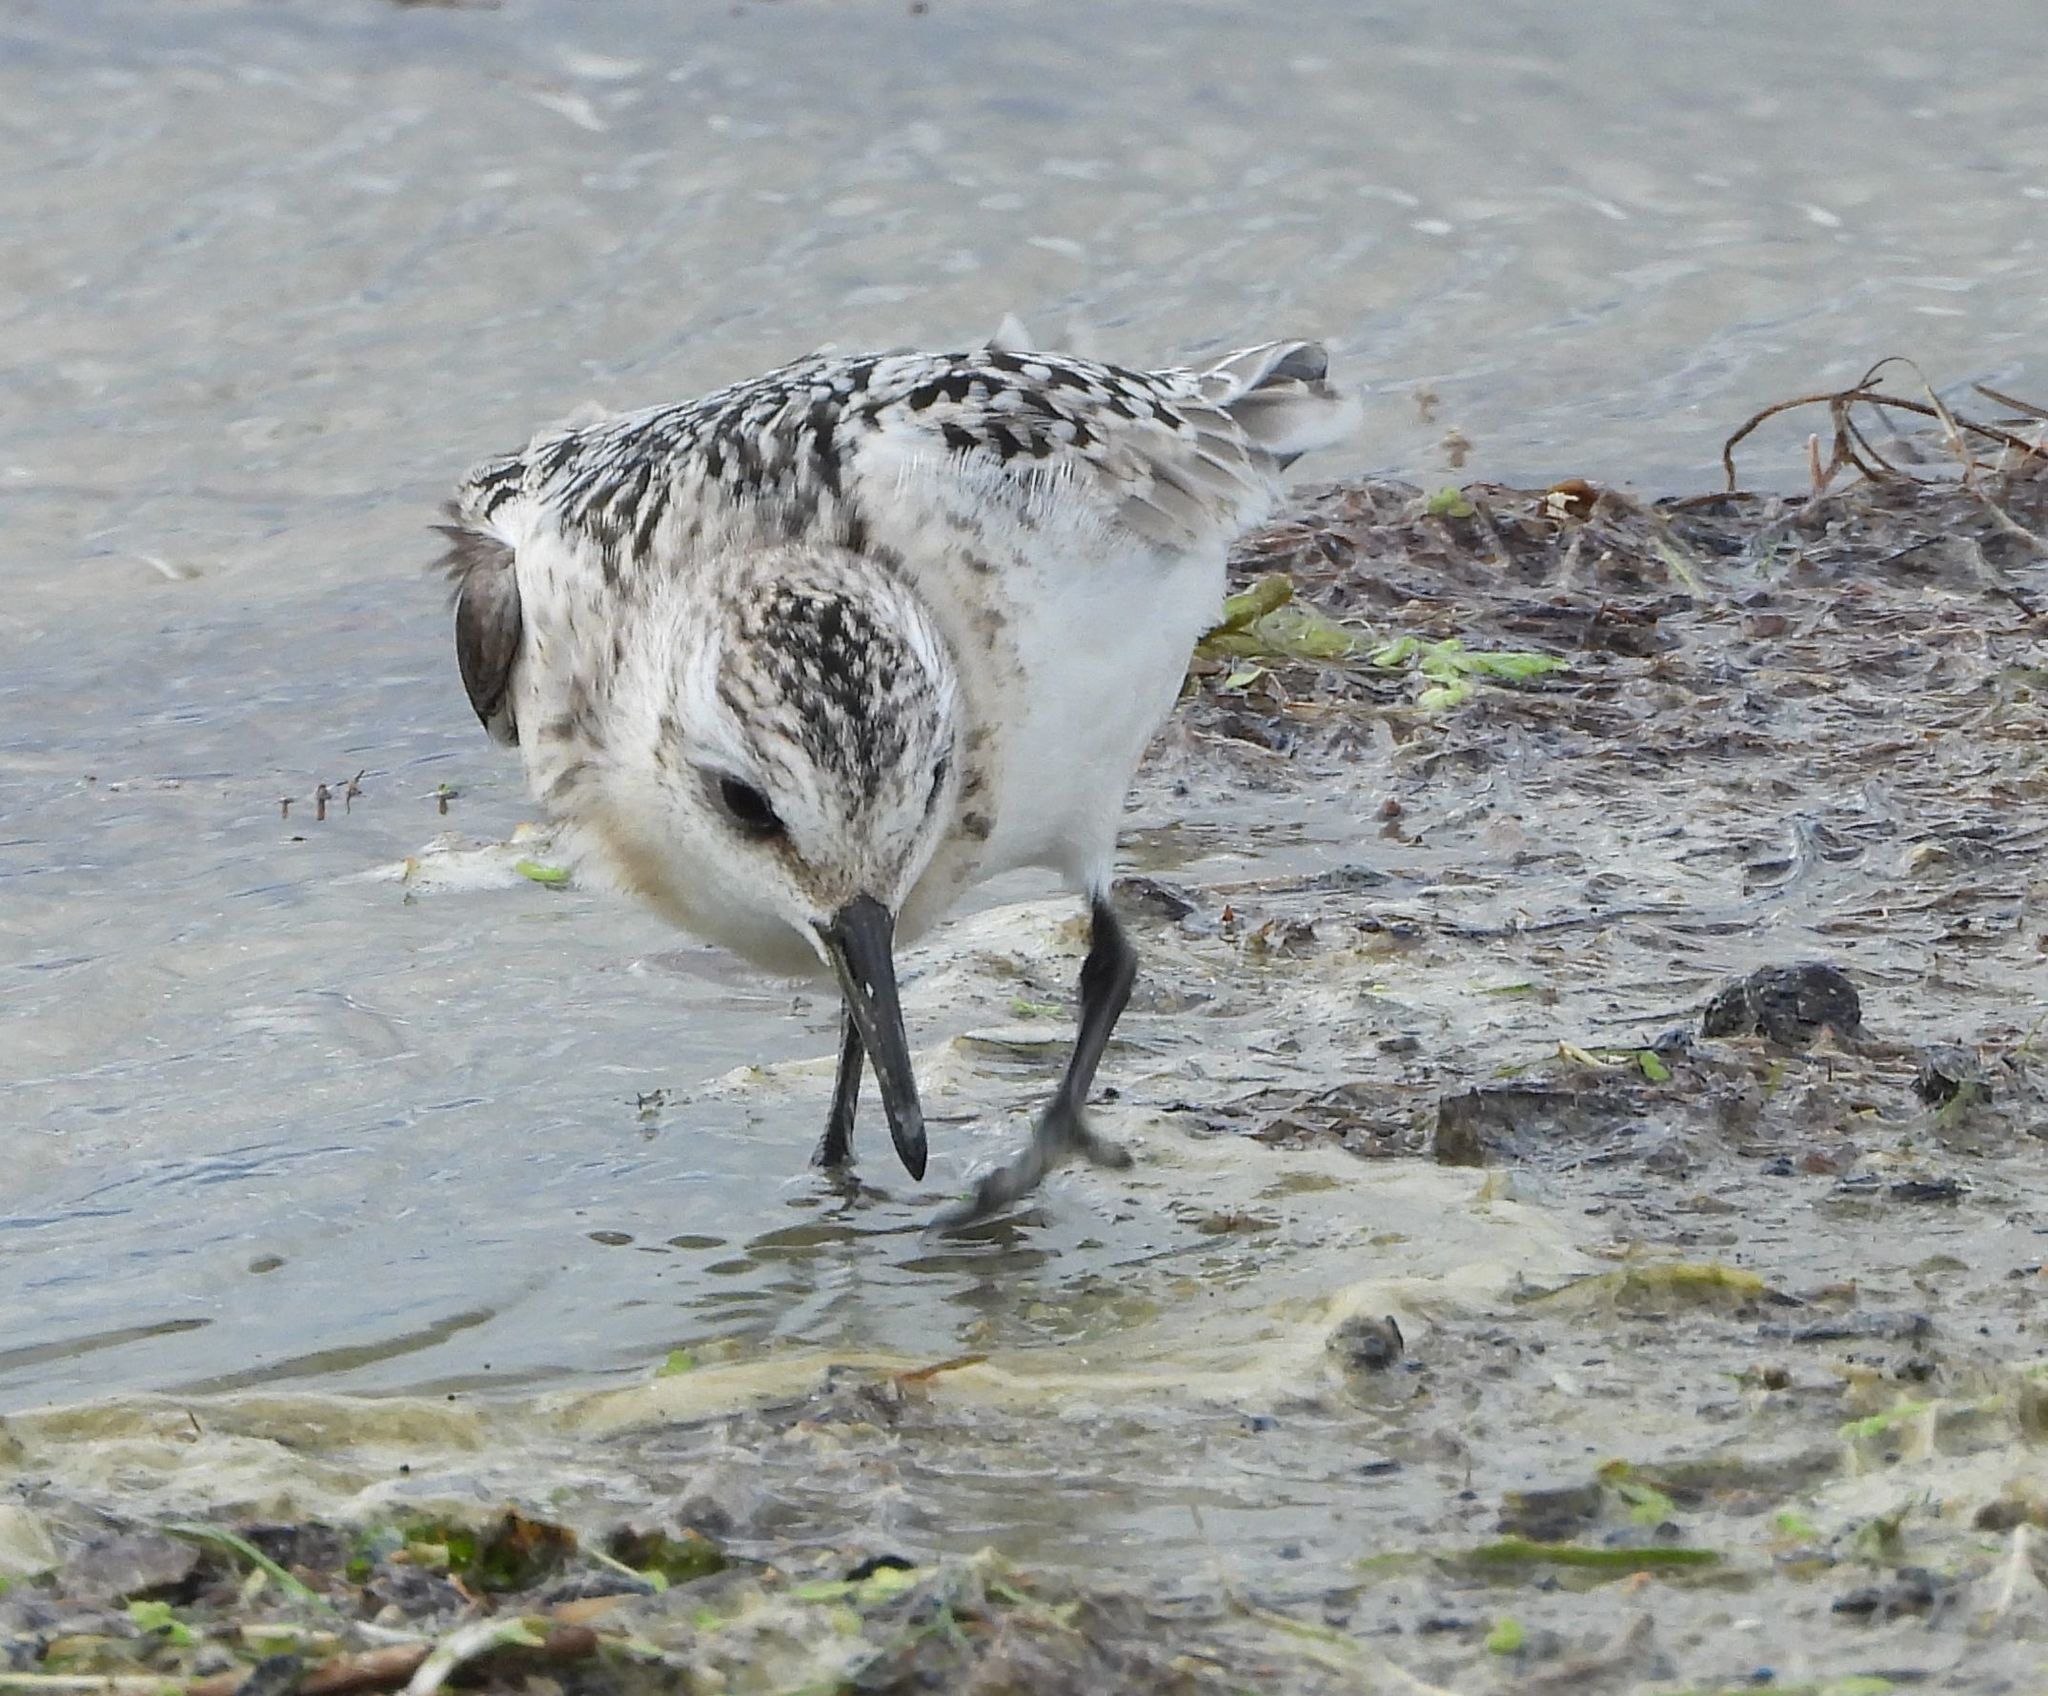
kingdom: Animalia
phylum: Chordata
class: Aves
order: Charadriiformes
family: Scolopacidae
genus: Calidris
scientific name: Calidris alba
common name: Sanderling
